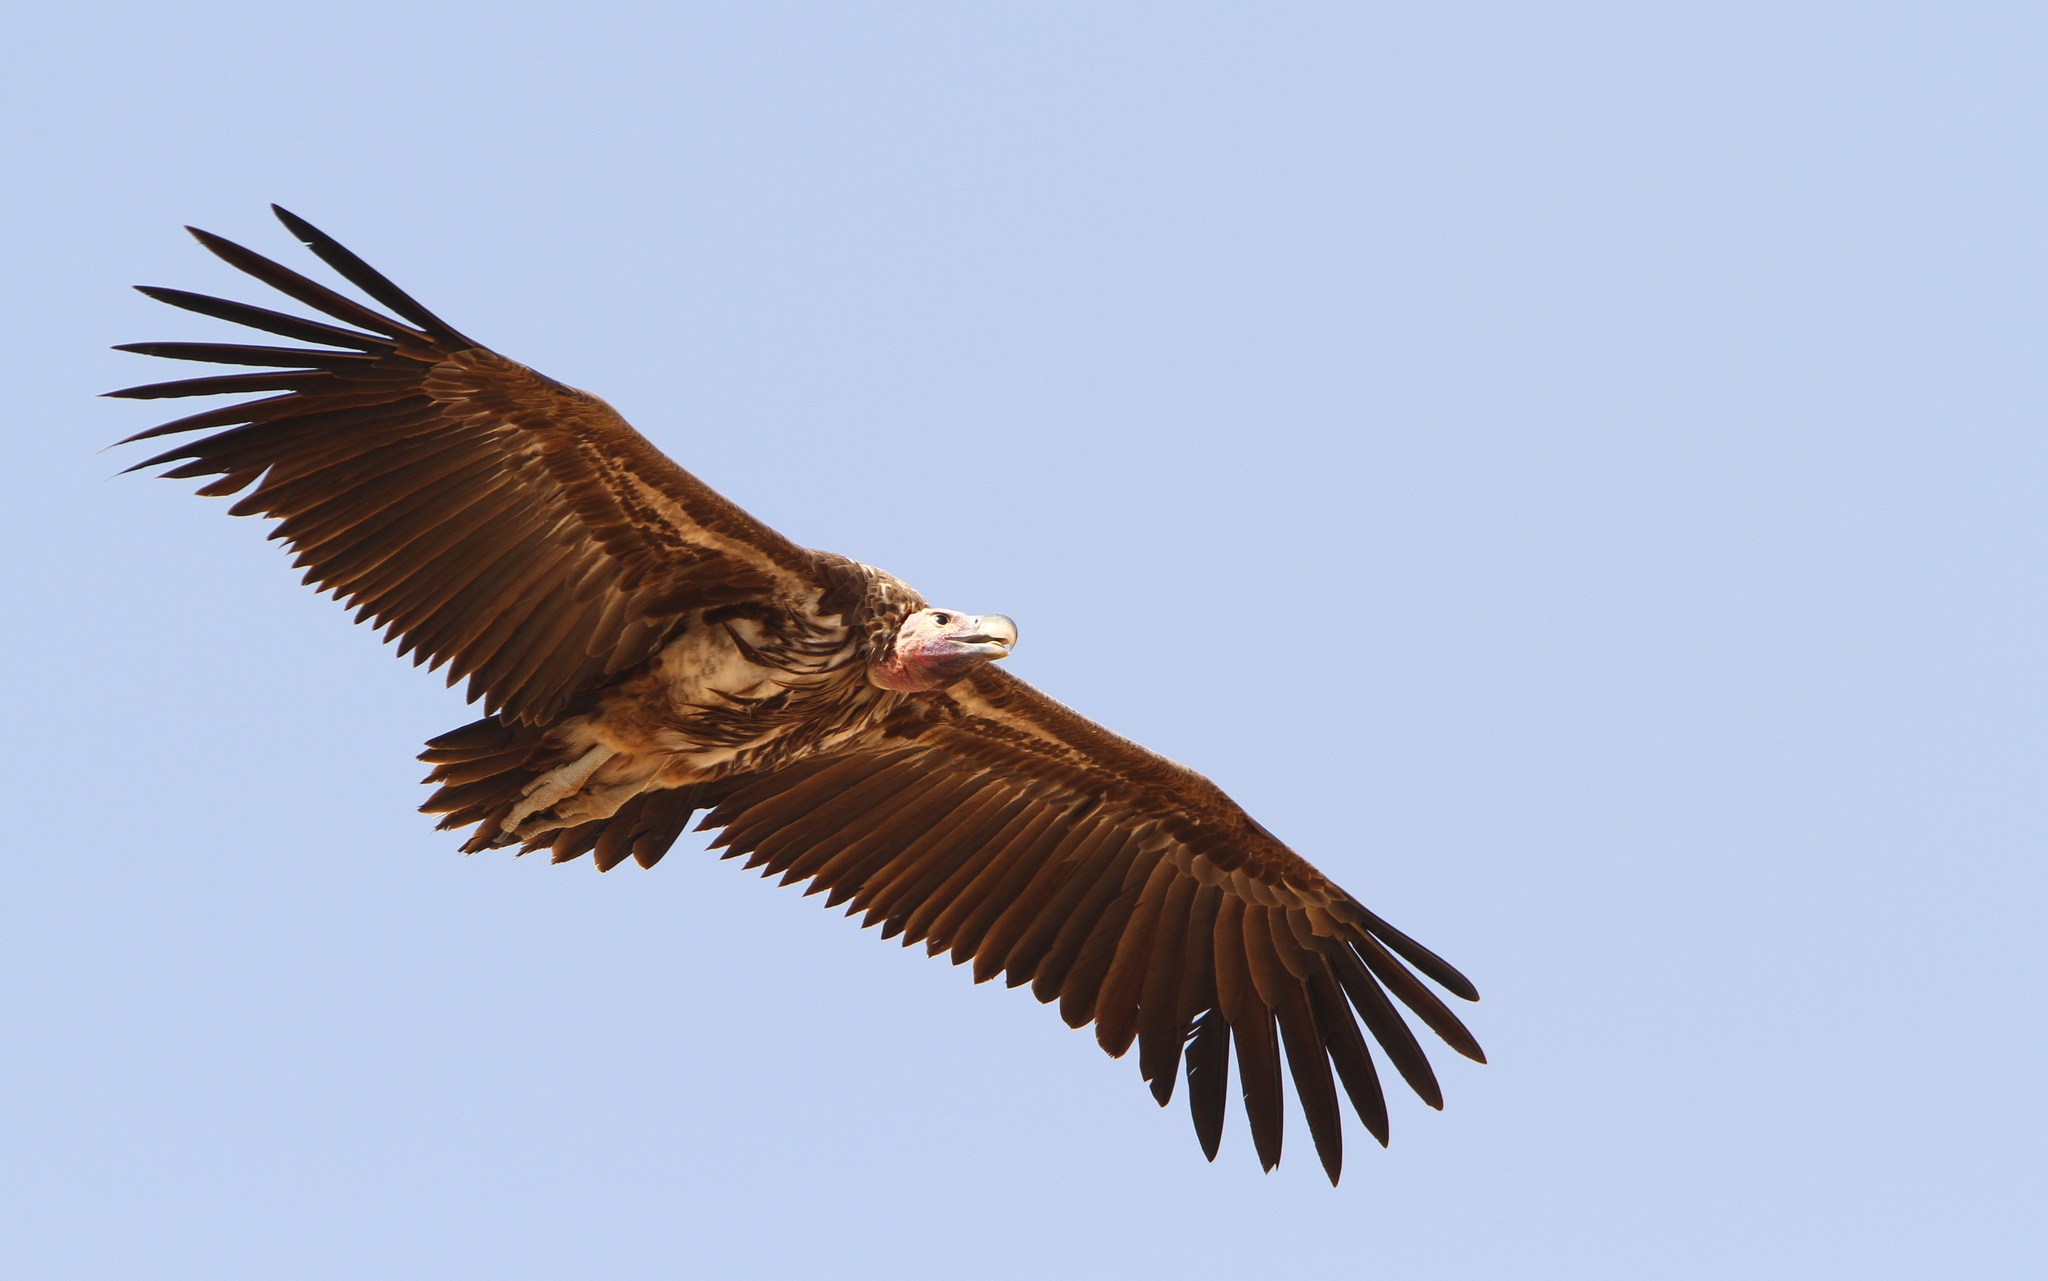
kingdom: Animalia
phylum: Chordata
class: Aves
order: Accipitriformes
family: Accipitridae
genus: Torgos
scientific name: Torgos tracheliotos
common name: Lappet-faced vulture
